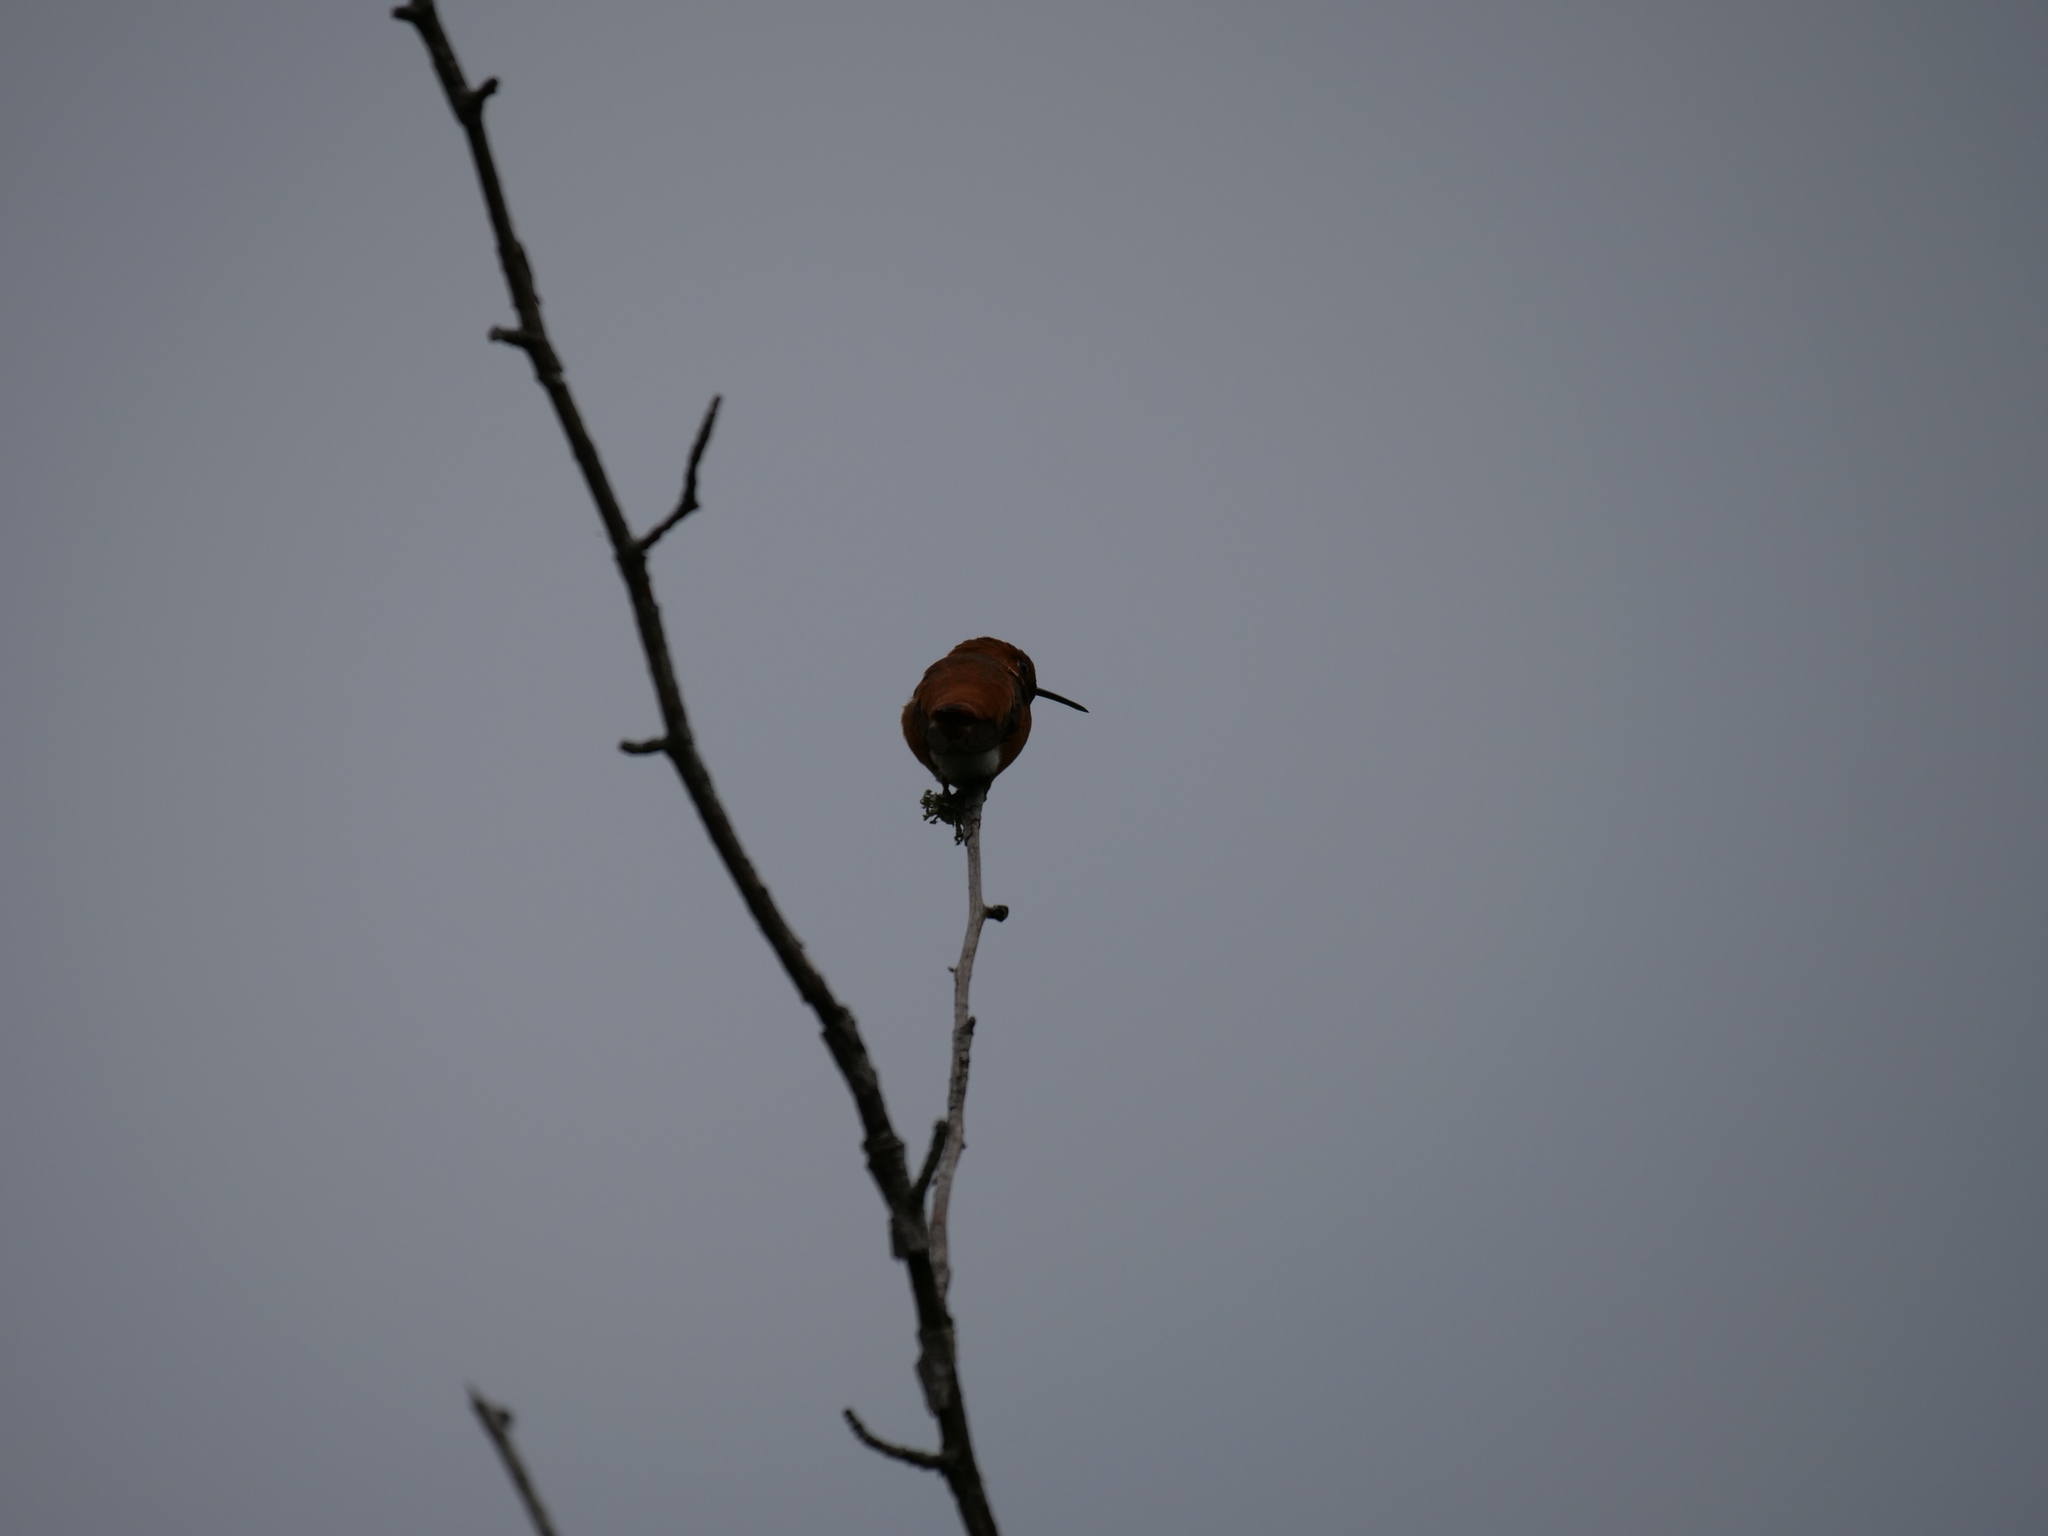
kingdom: Animalia
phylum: Chordata
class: Aves
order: Apodiformes
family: Trochilidae
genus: Selasphorus
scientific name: Selasphorus rufus
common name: Rufous hummingbird
